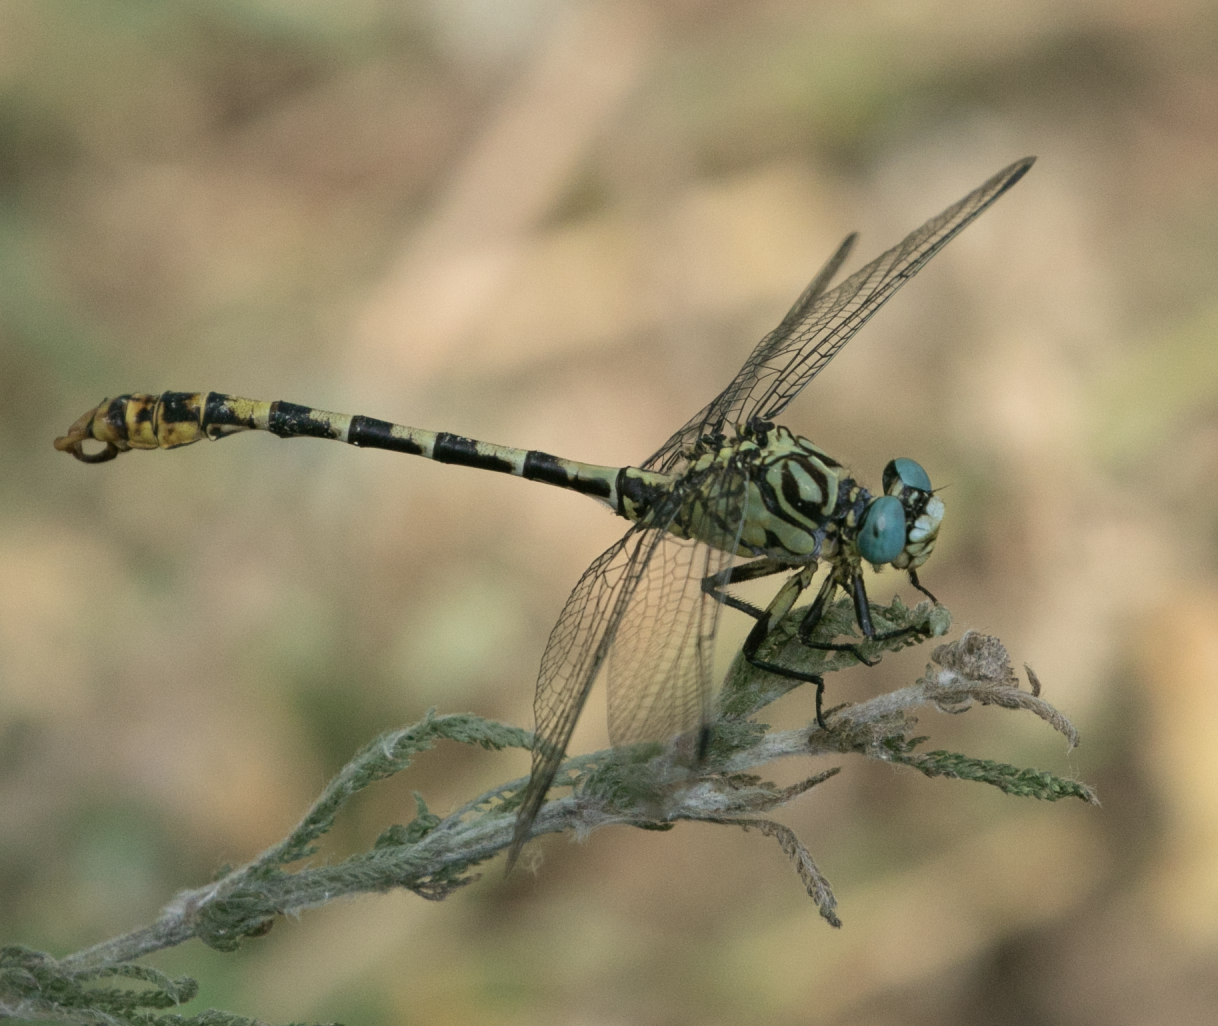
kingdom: Animalia
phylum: Arthropoda
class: Insecta
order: Odonata
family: Gomphidae
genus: Onychogomphus
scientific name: Onychogomphus forcipatus
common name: Small pincertail
